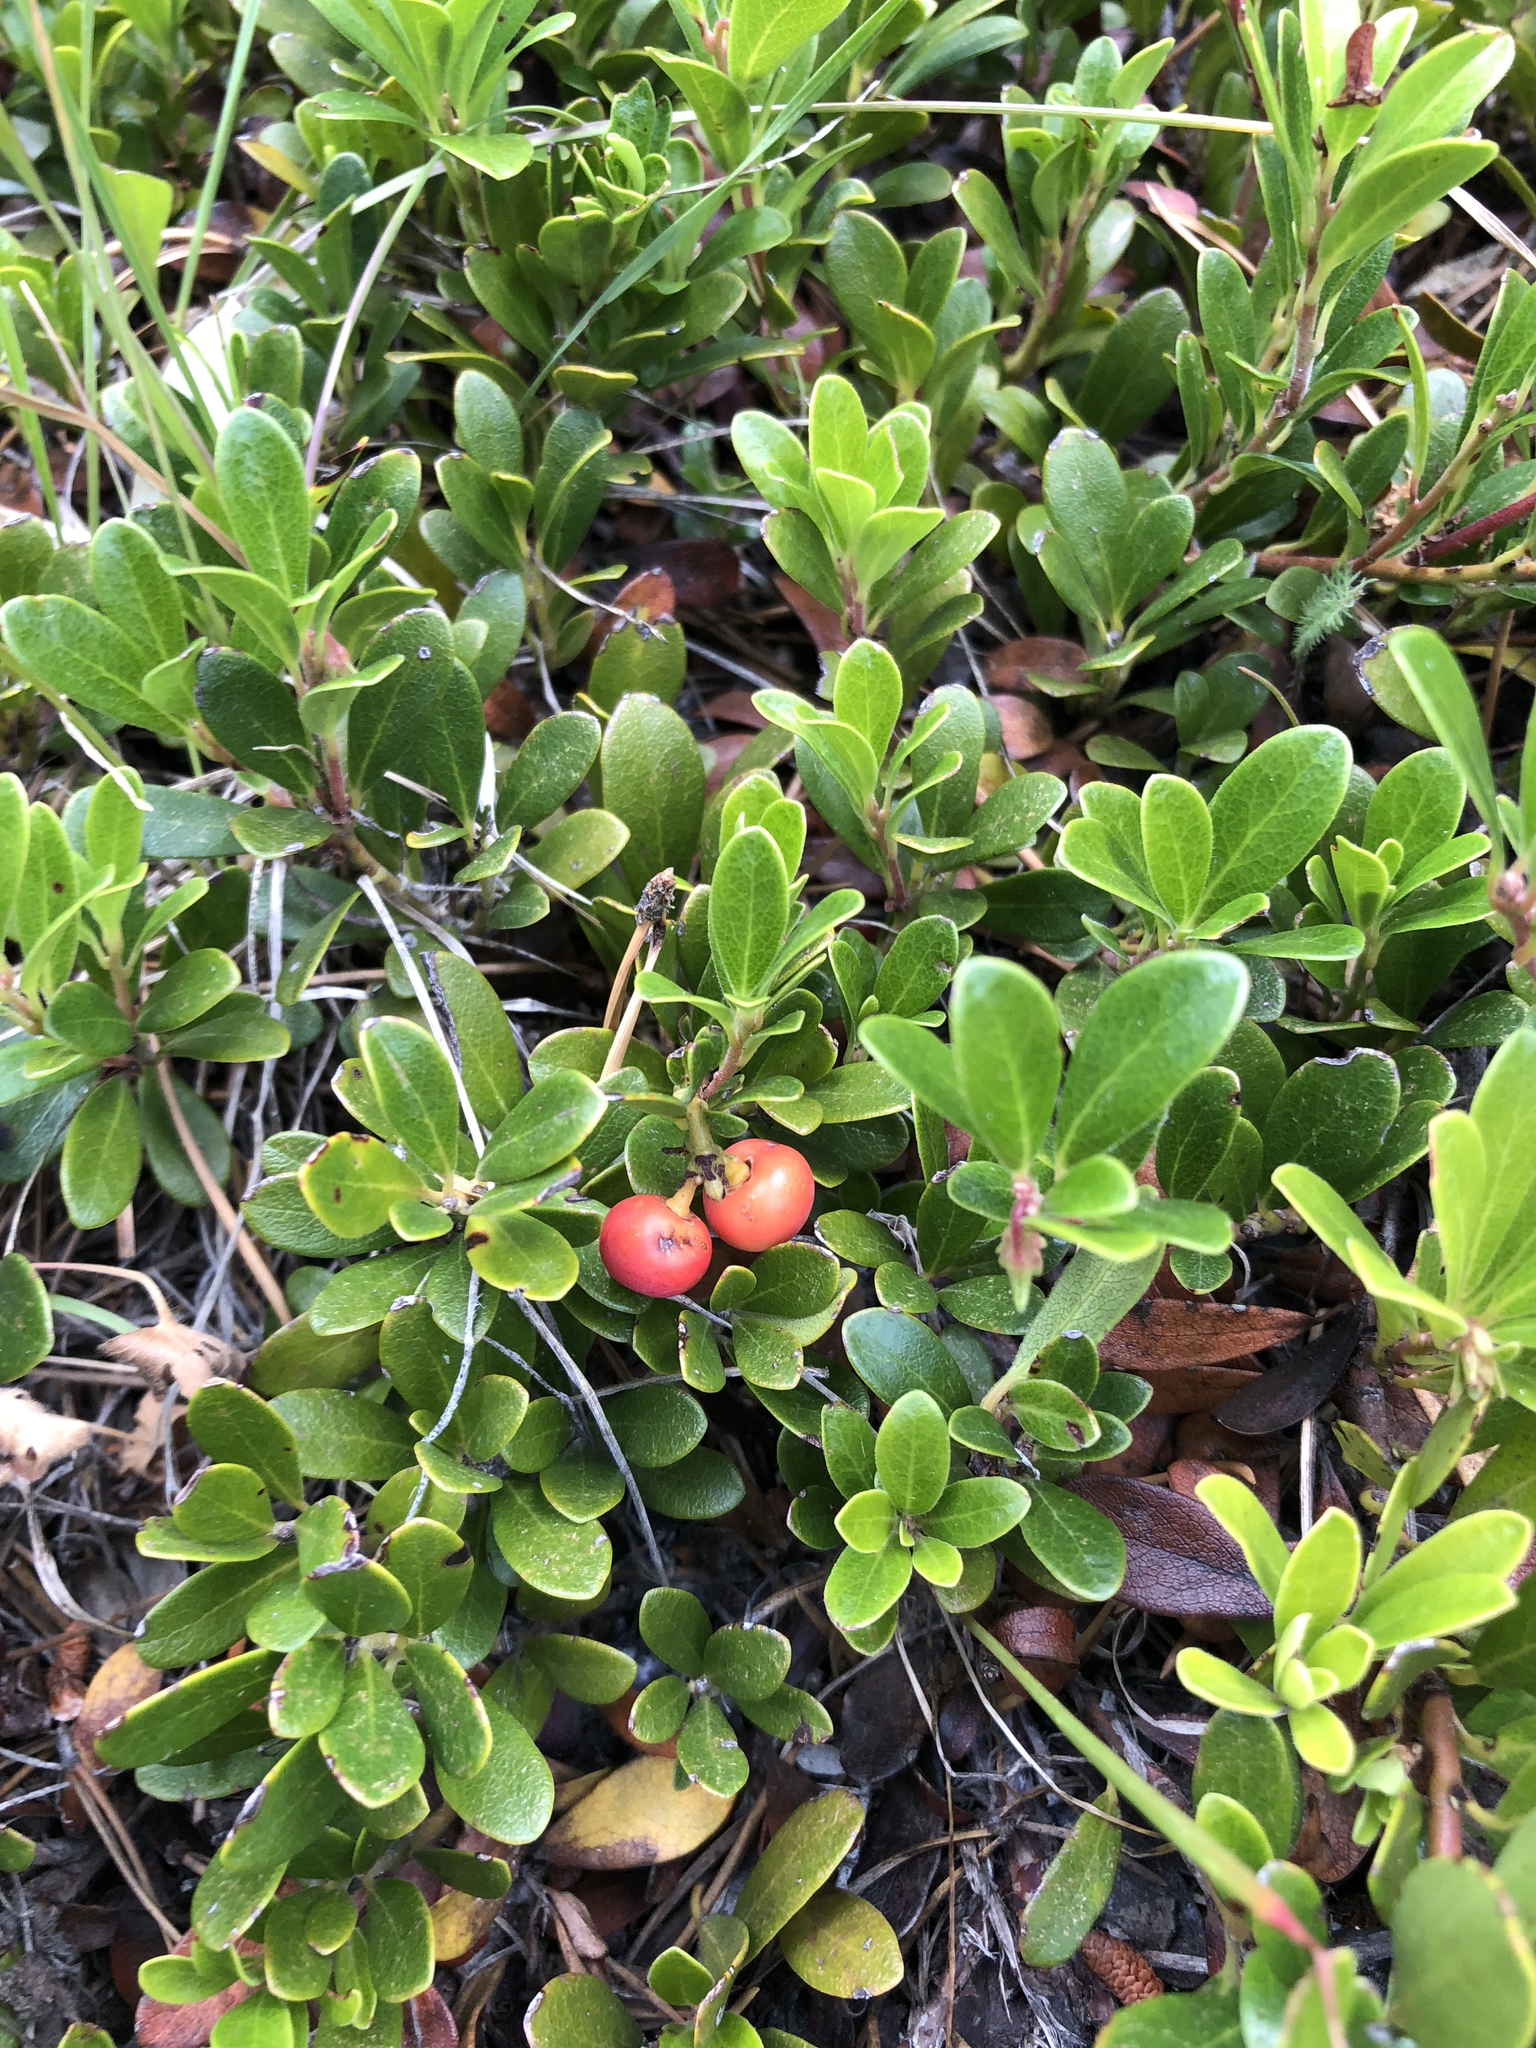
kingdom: Plantae
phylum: Tracheophyta
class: Magnoliopsida
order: Ericales
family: Ericaceae
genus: Arctostaphylos
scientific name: Arctostaphylos uva-ursi
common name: Bearberry
